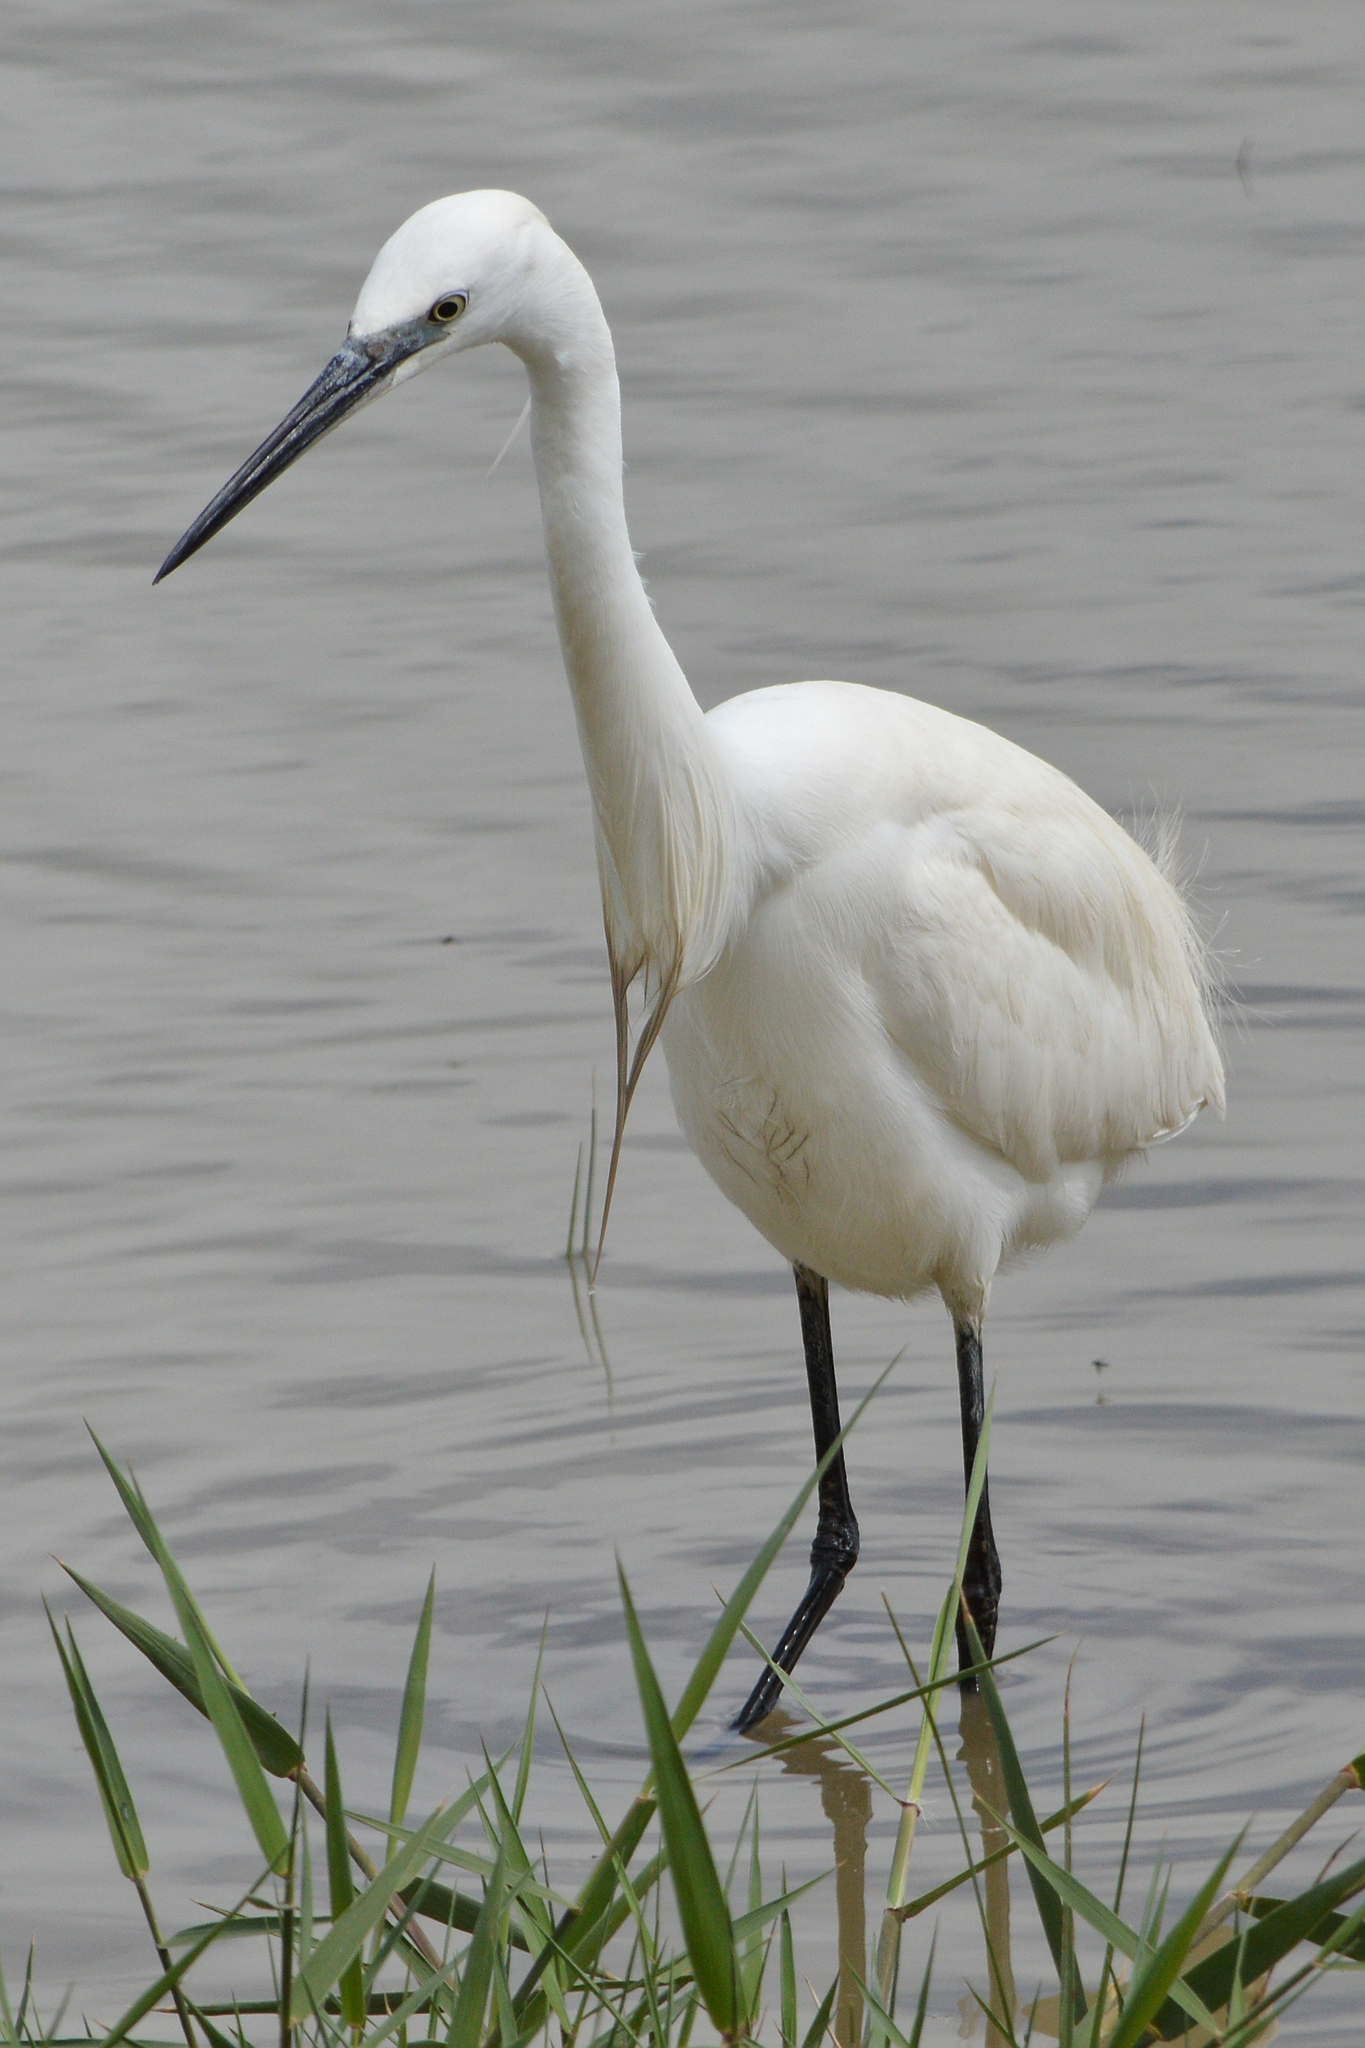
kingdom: Animalia
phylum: Chordata
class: Aves
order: Pelecaniformes
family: Ardeidae
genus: Egretta
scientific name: Egretta garzetta
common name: Little egret
